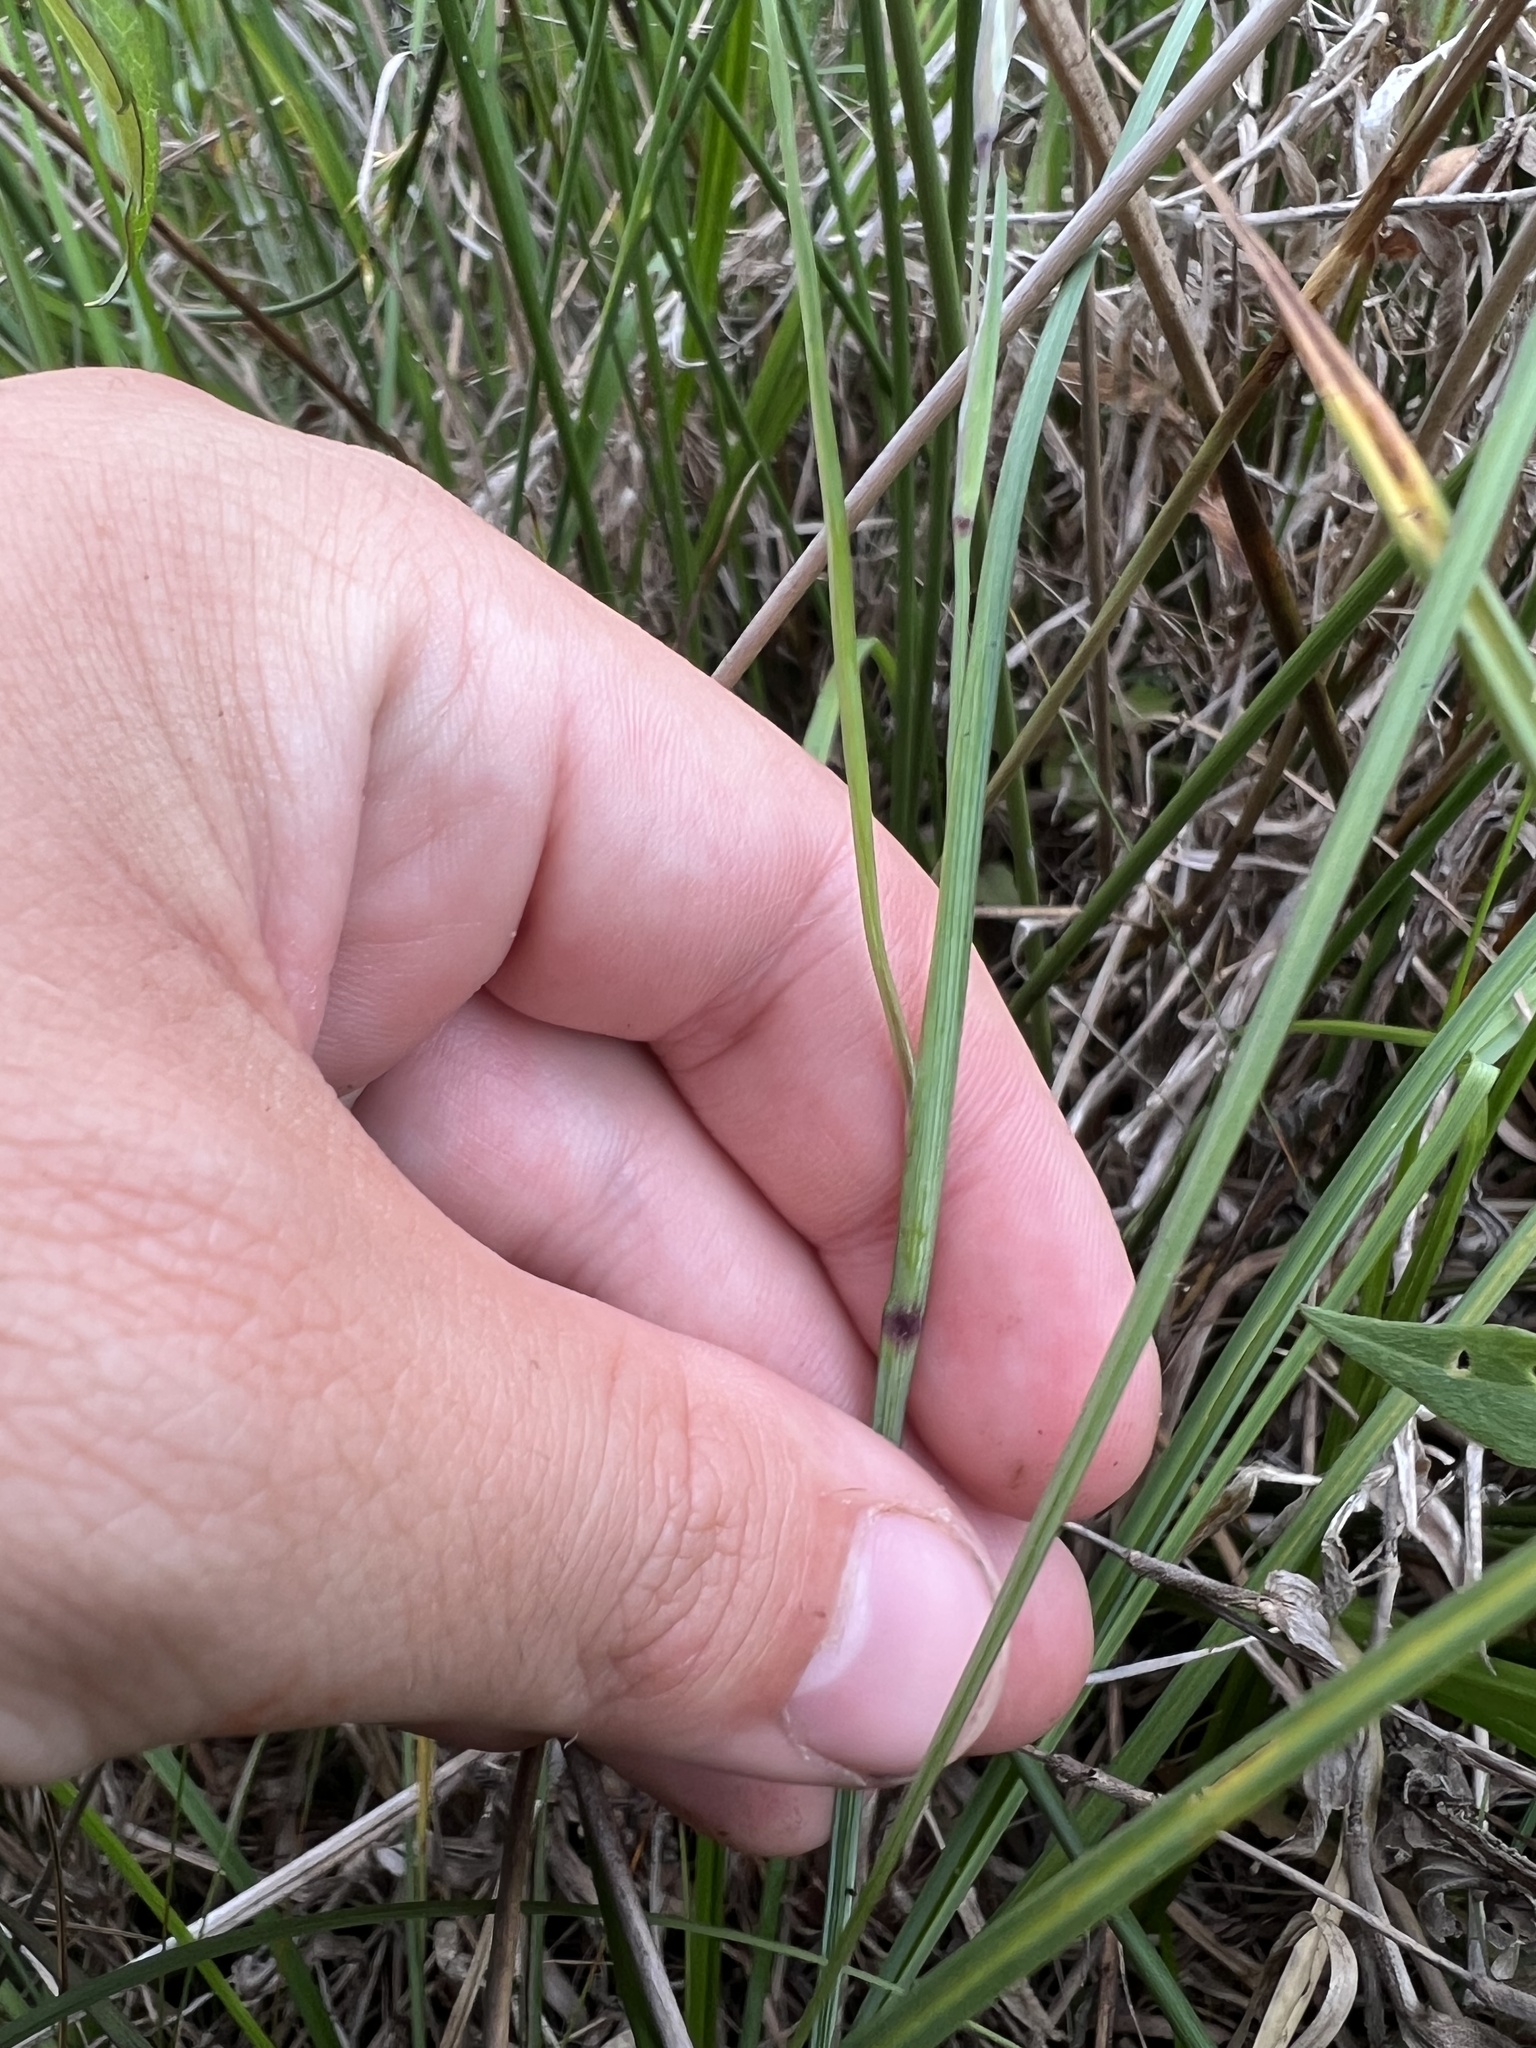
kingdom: Plantae
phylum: Tracheophyta
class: Liliopsida
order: Asparagales
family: Iridaceae
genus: Sisyrinchium
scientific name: Sisyrinchium nashii
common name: Nash's blue-eyed-grass
